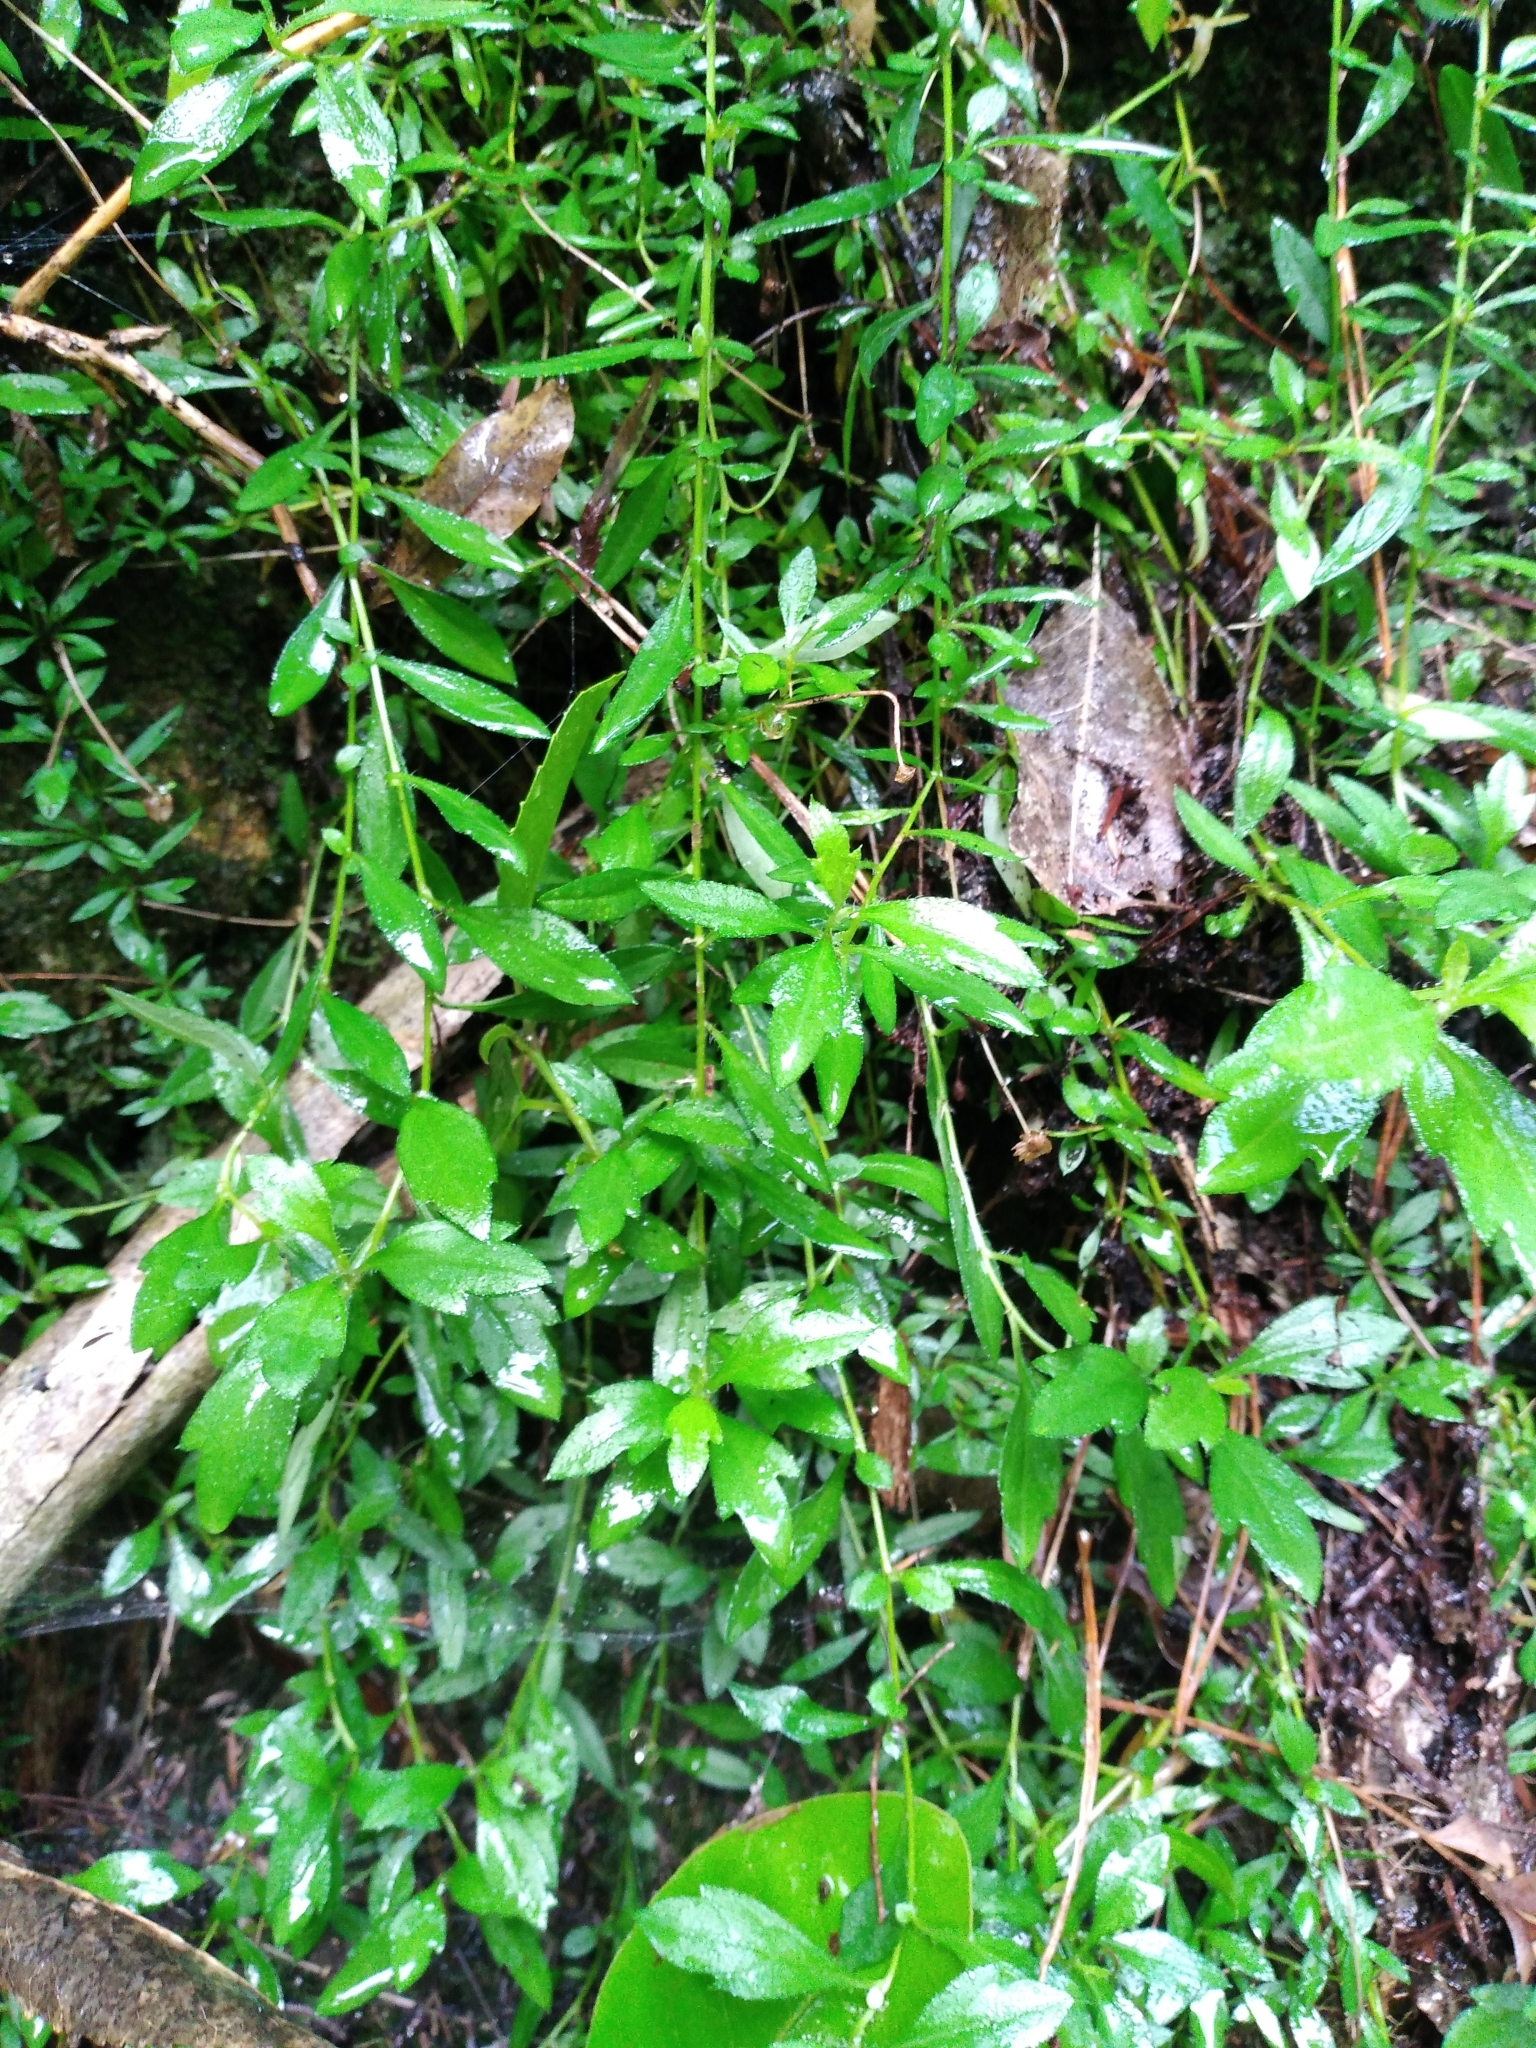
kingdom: Plantae
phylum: Tracheophyta
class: Magnoliopsida
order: Asterales
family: Asteraceae
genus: Erigeron
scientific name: Erigeron karvinskianus
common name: Mexican fleabane
